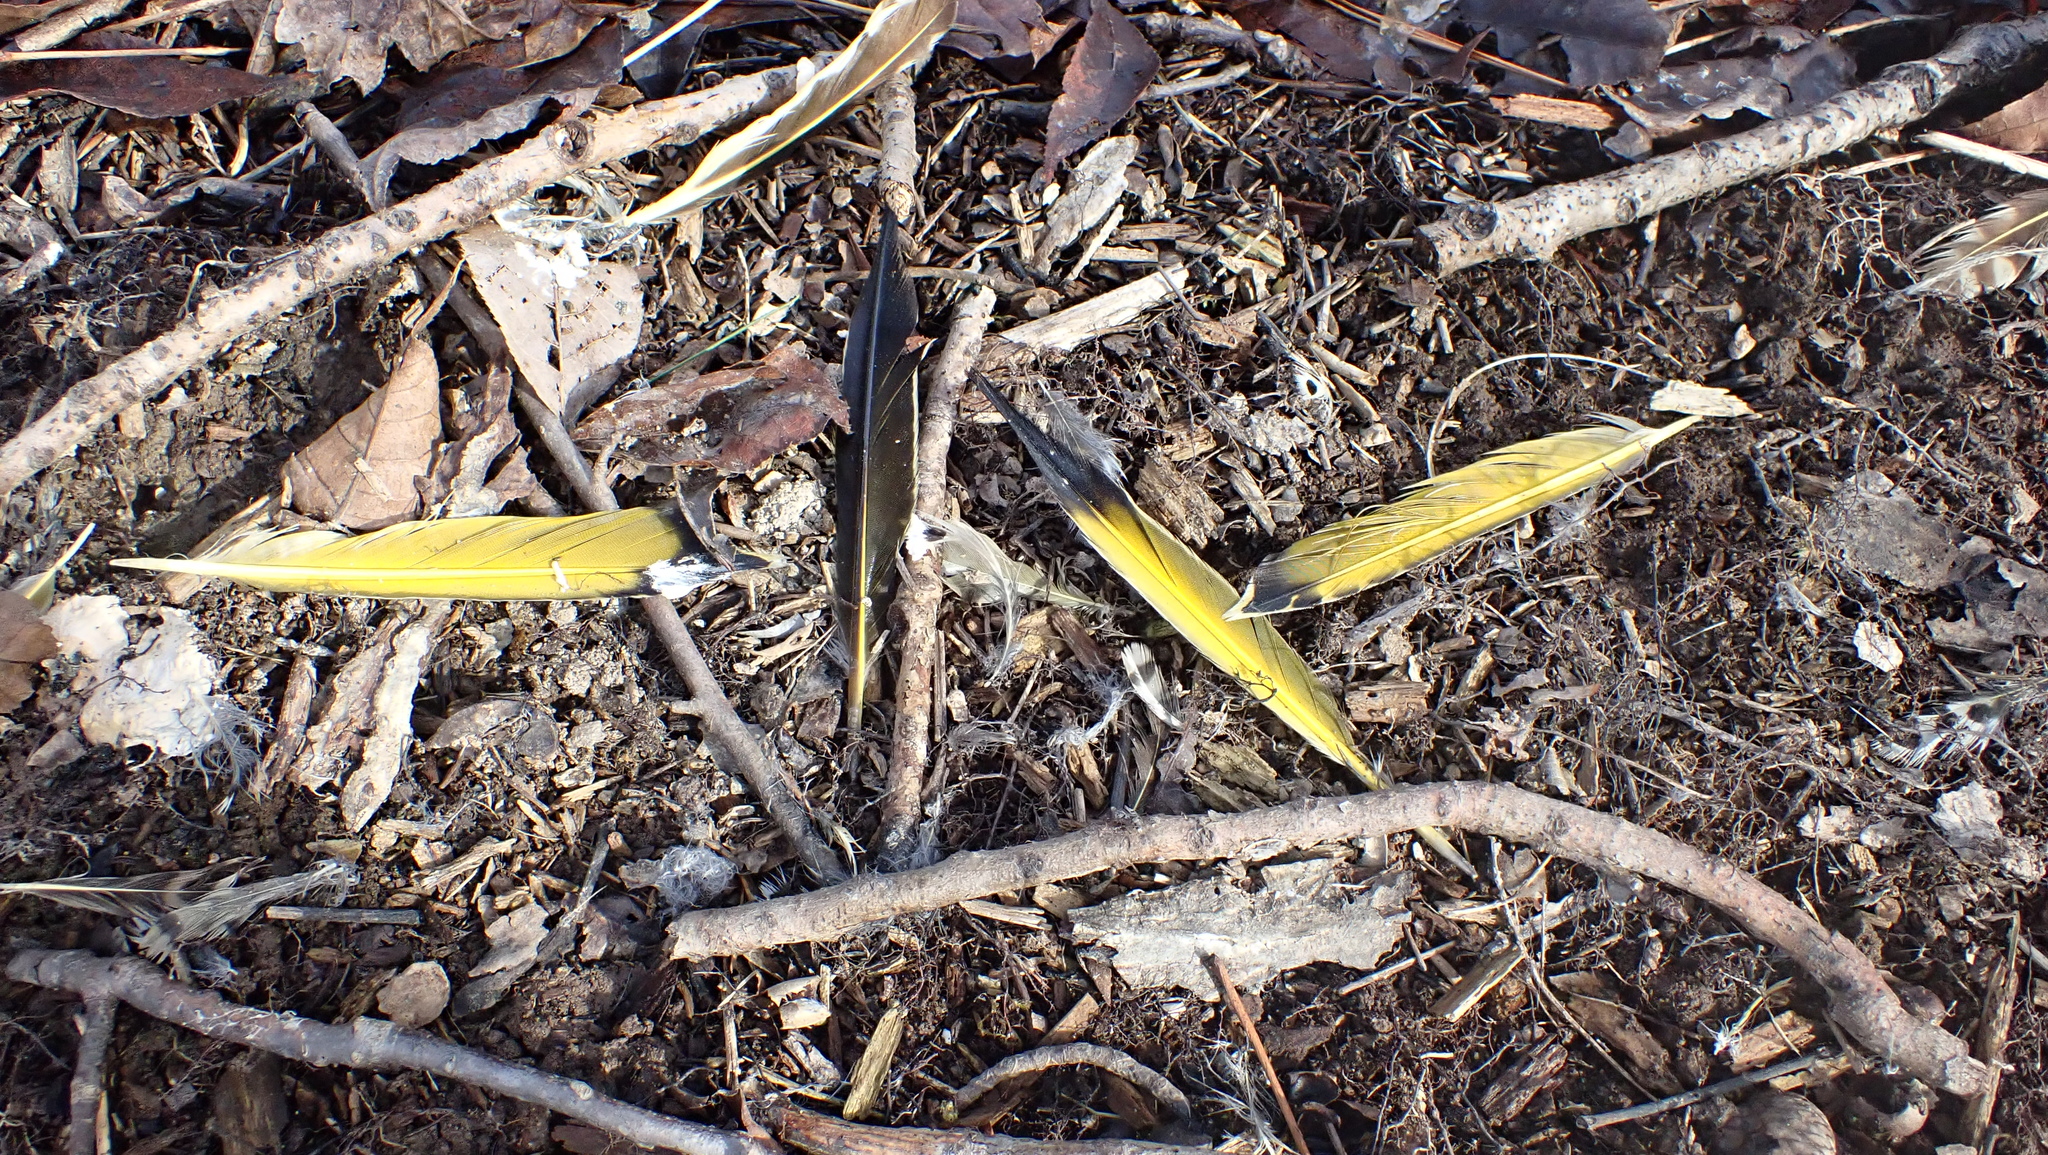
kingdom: Animalia
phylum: Chordata
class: Aves
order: Piciformes
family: Picidae
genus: Colaptes
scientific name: Colaptes auratus
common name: Northern flicker
